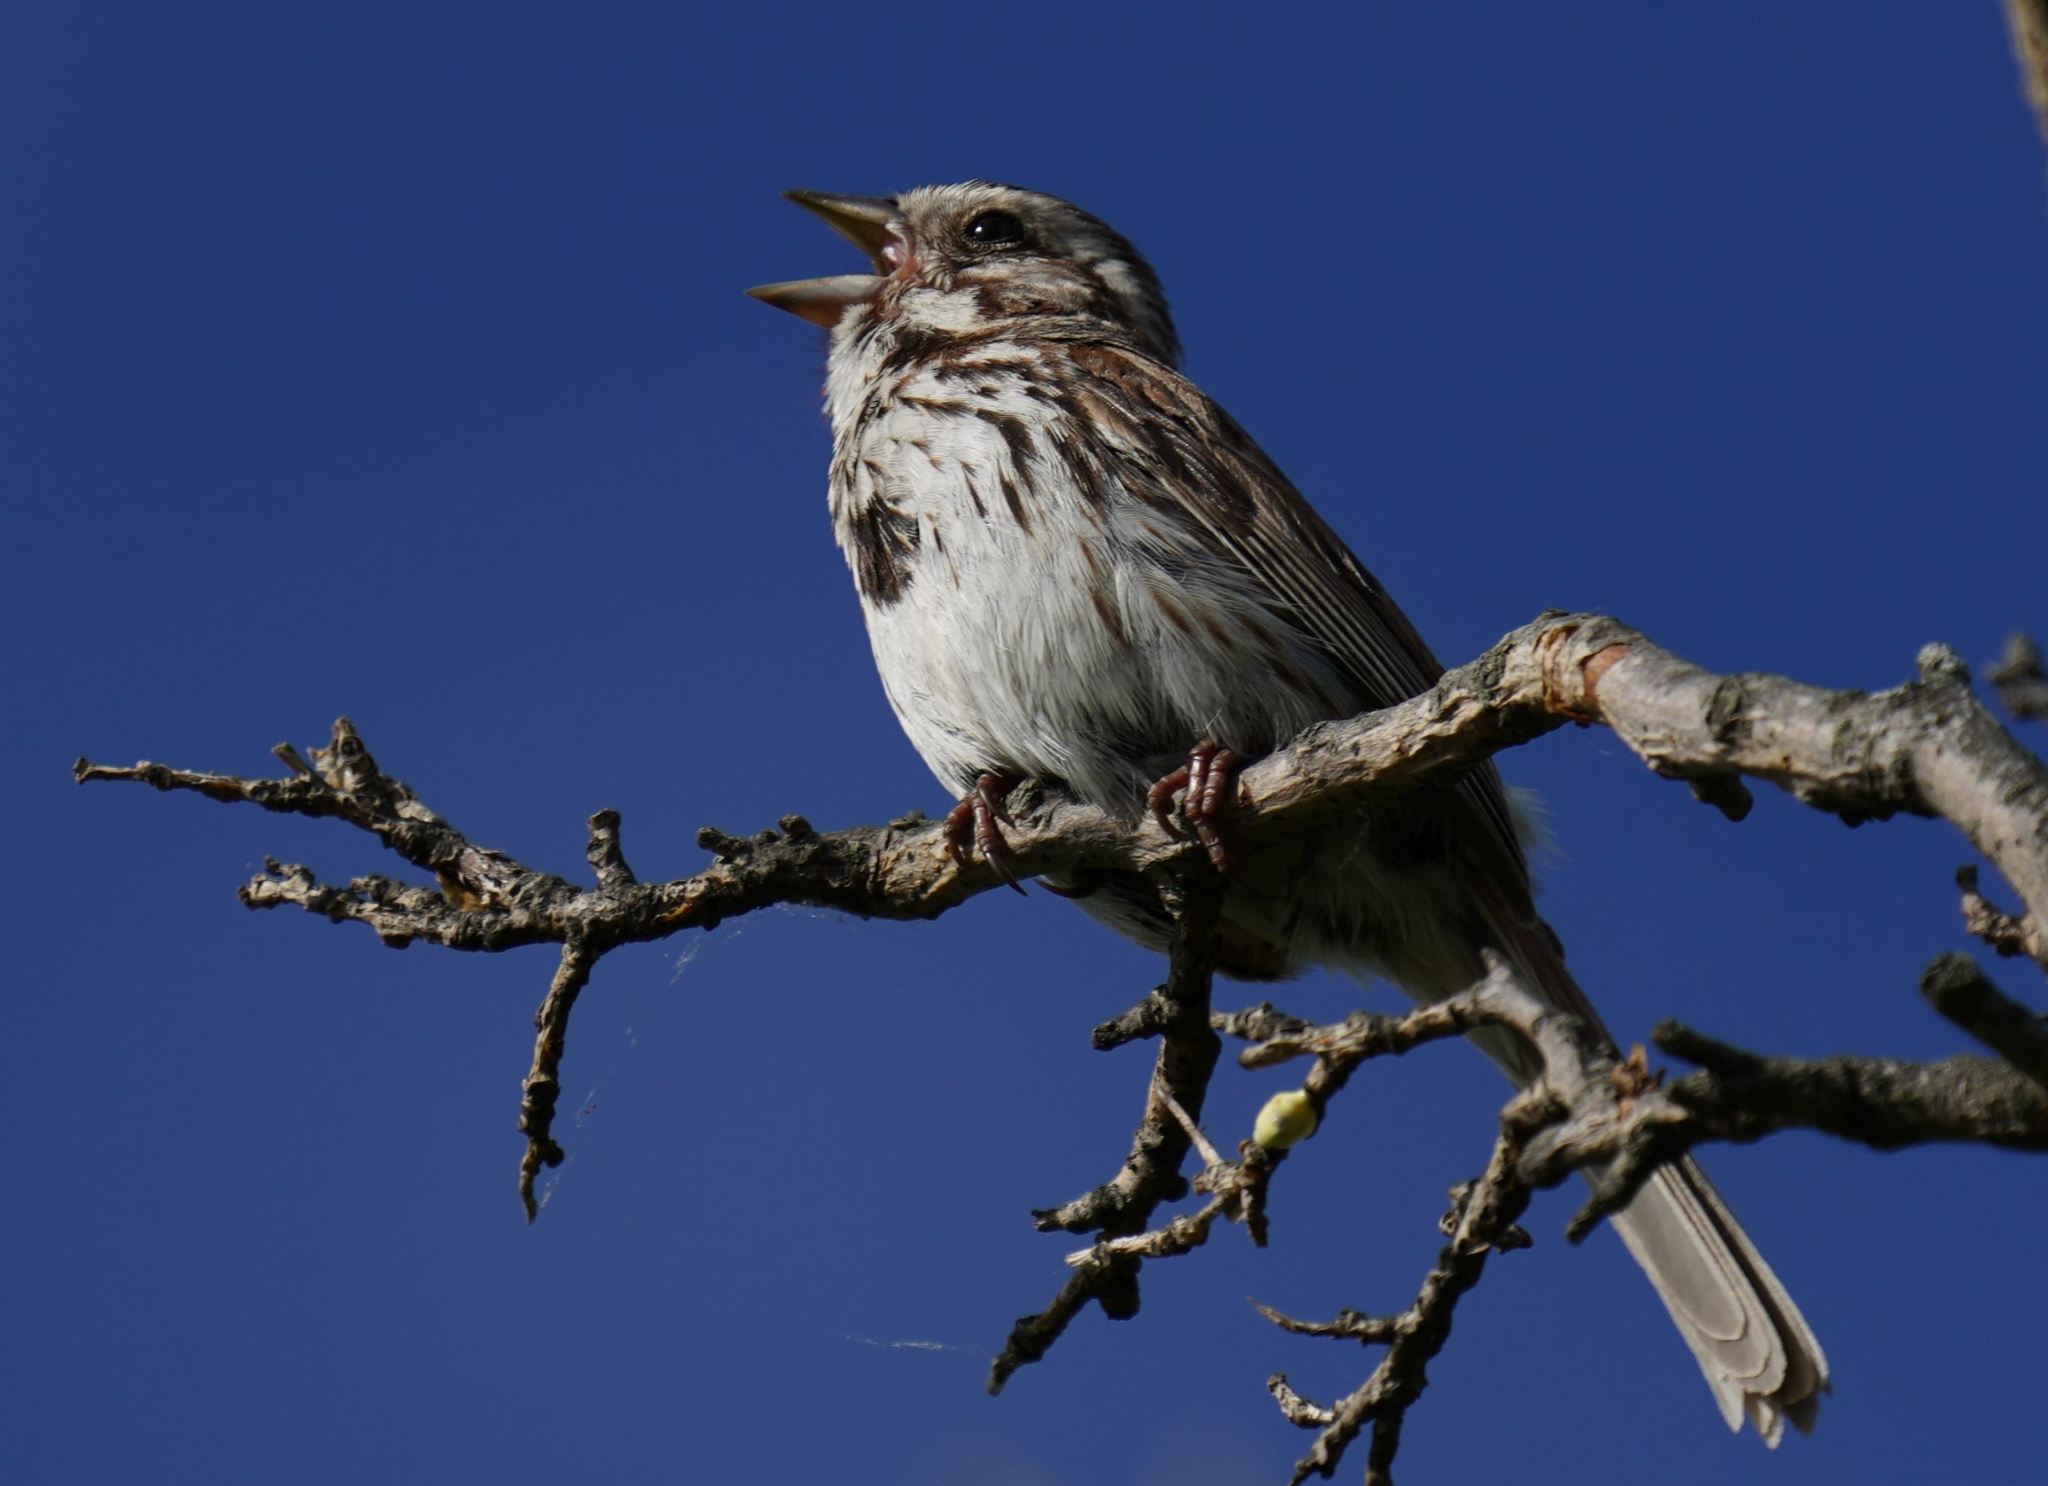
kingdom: Animalia
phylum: Chordata
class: Aves
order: Passeriformes
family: Passerellidae
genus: Melospiza
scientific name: Melospiza melodia
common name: Song sparrow
